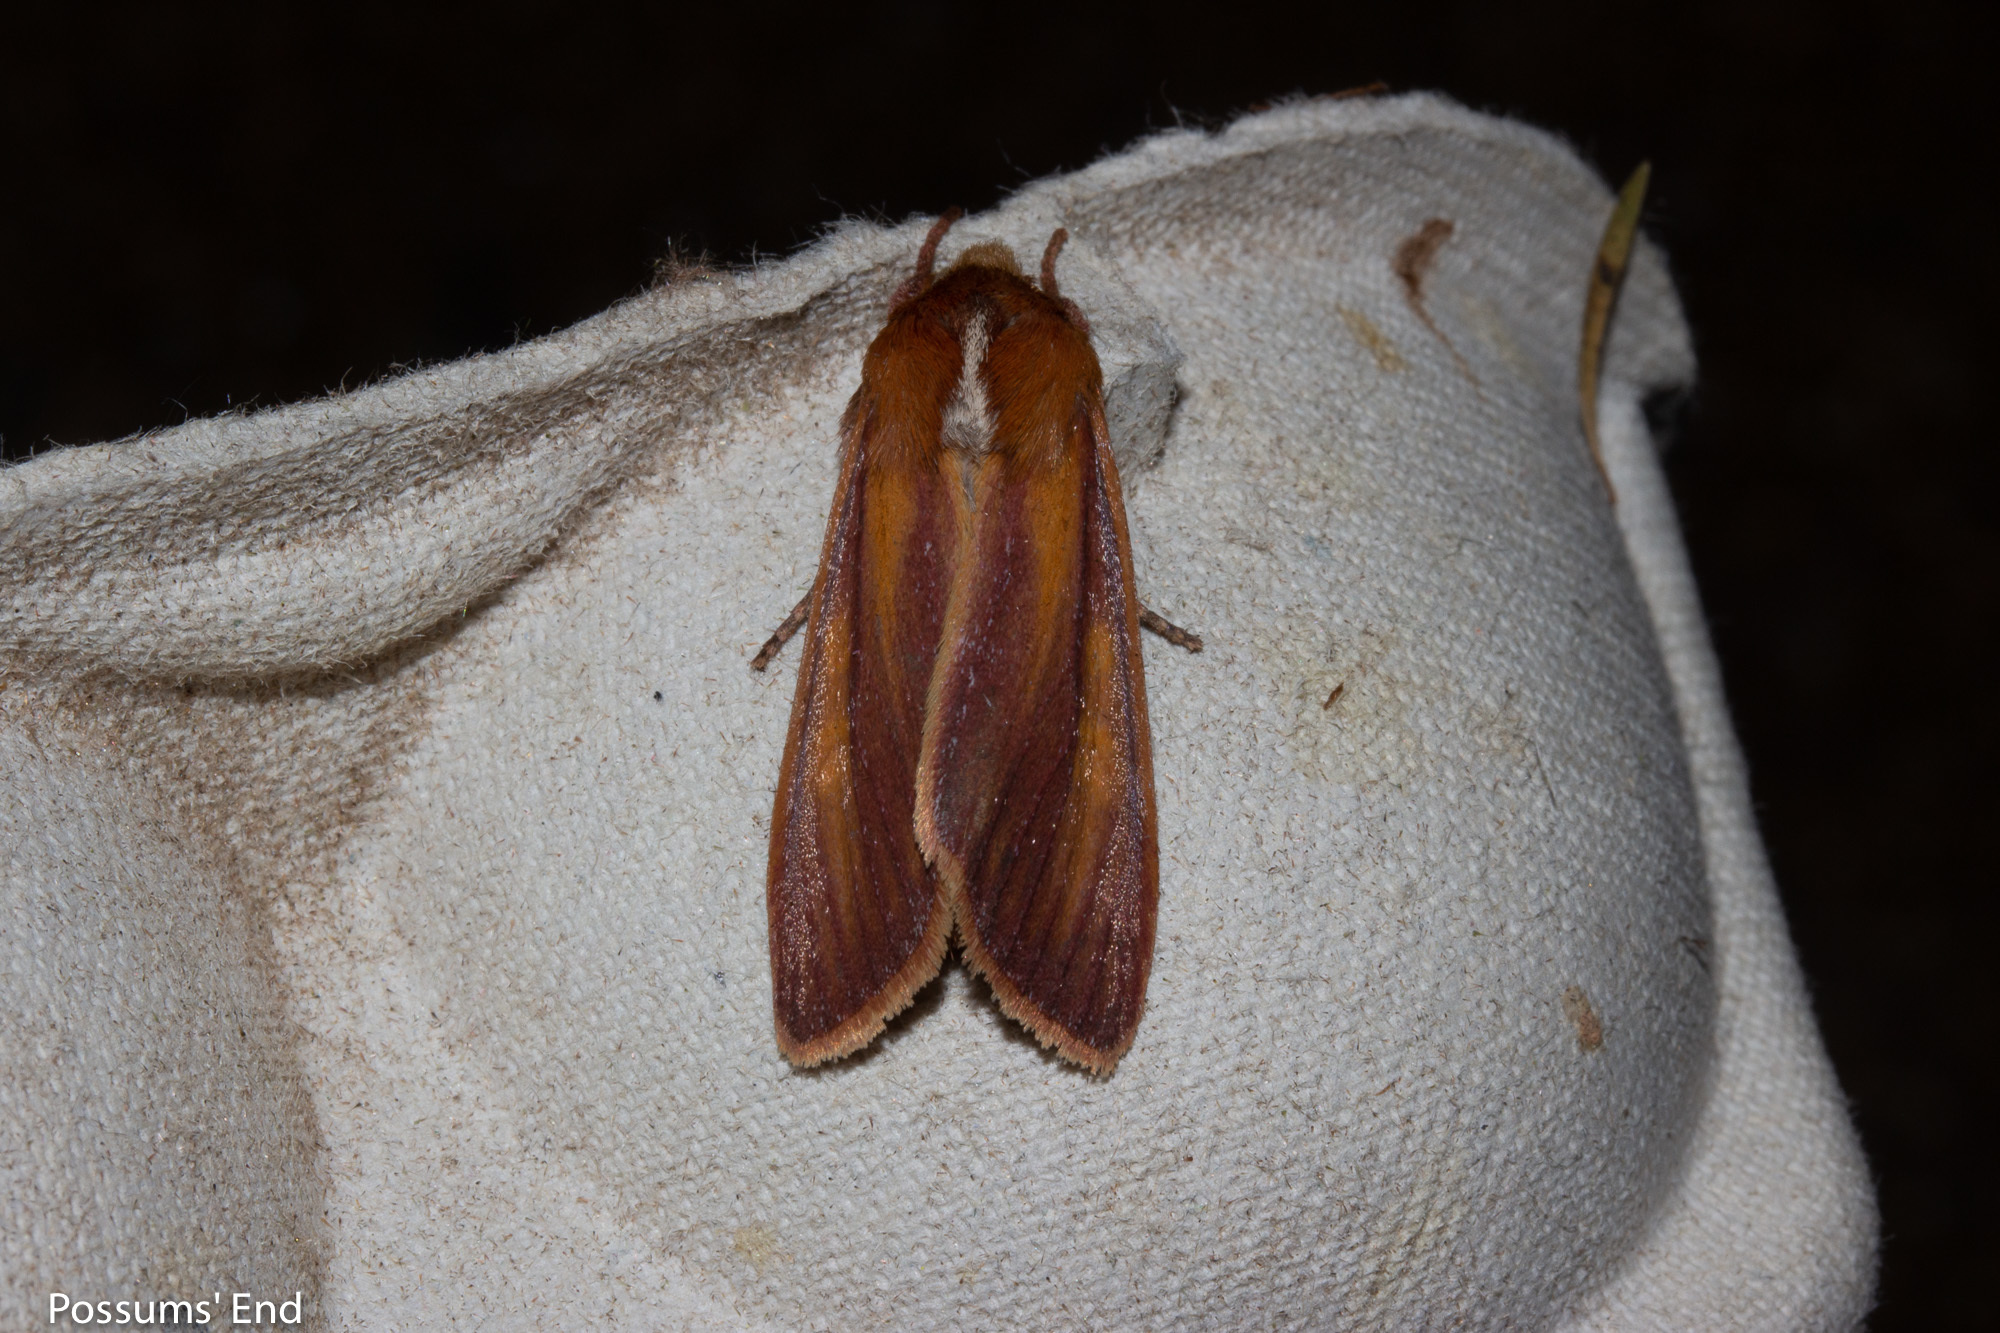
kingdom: Animalia
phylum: Arthropoda
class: Insecta
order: Lepidoptera
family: Noctuidae
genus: Ichneutica
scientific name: Ichneutica
